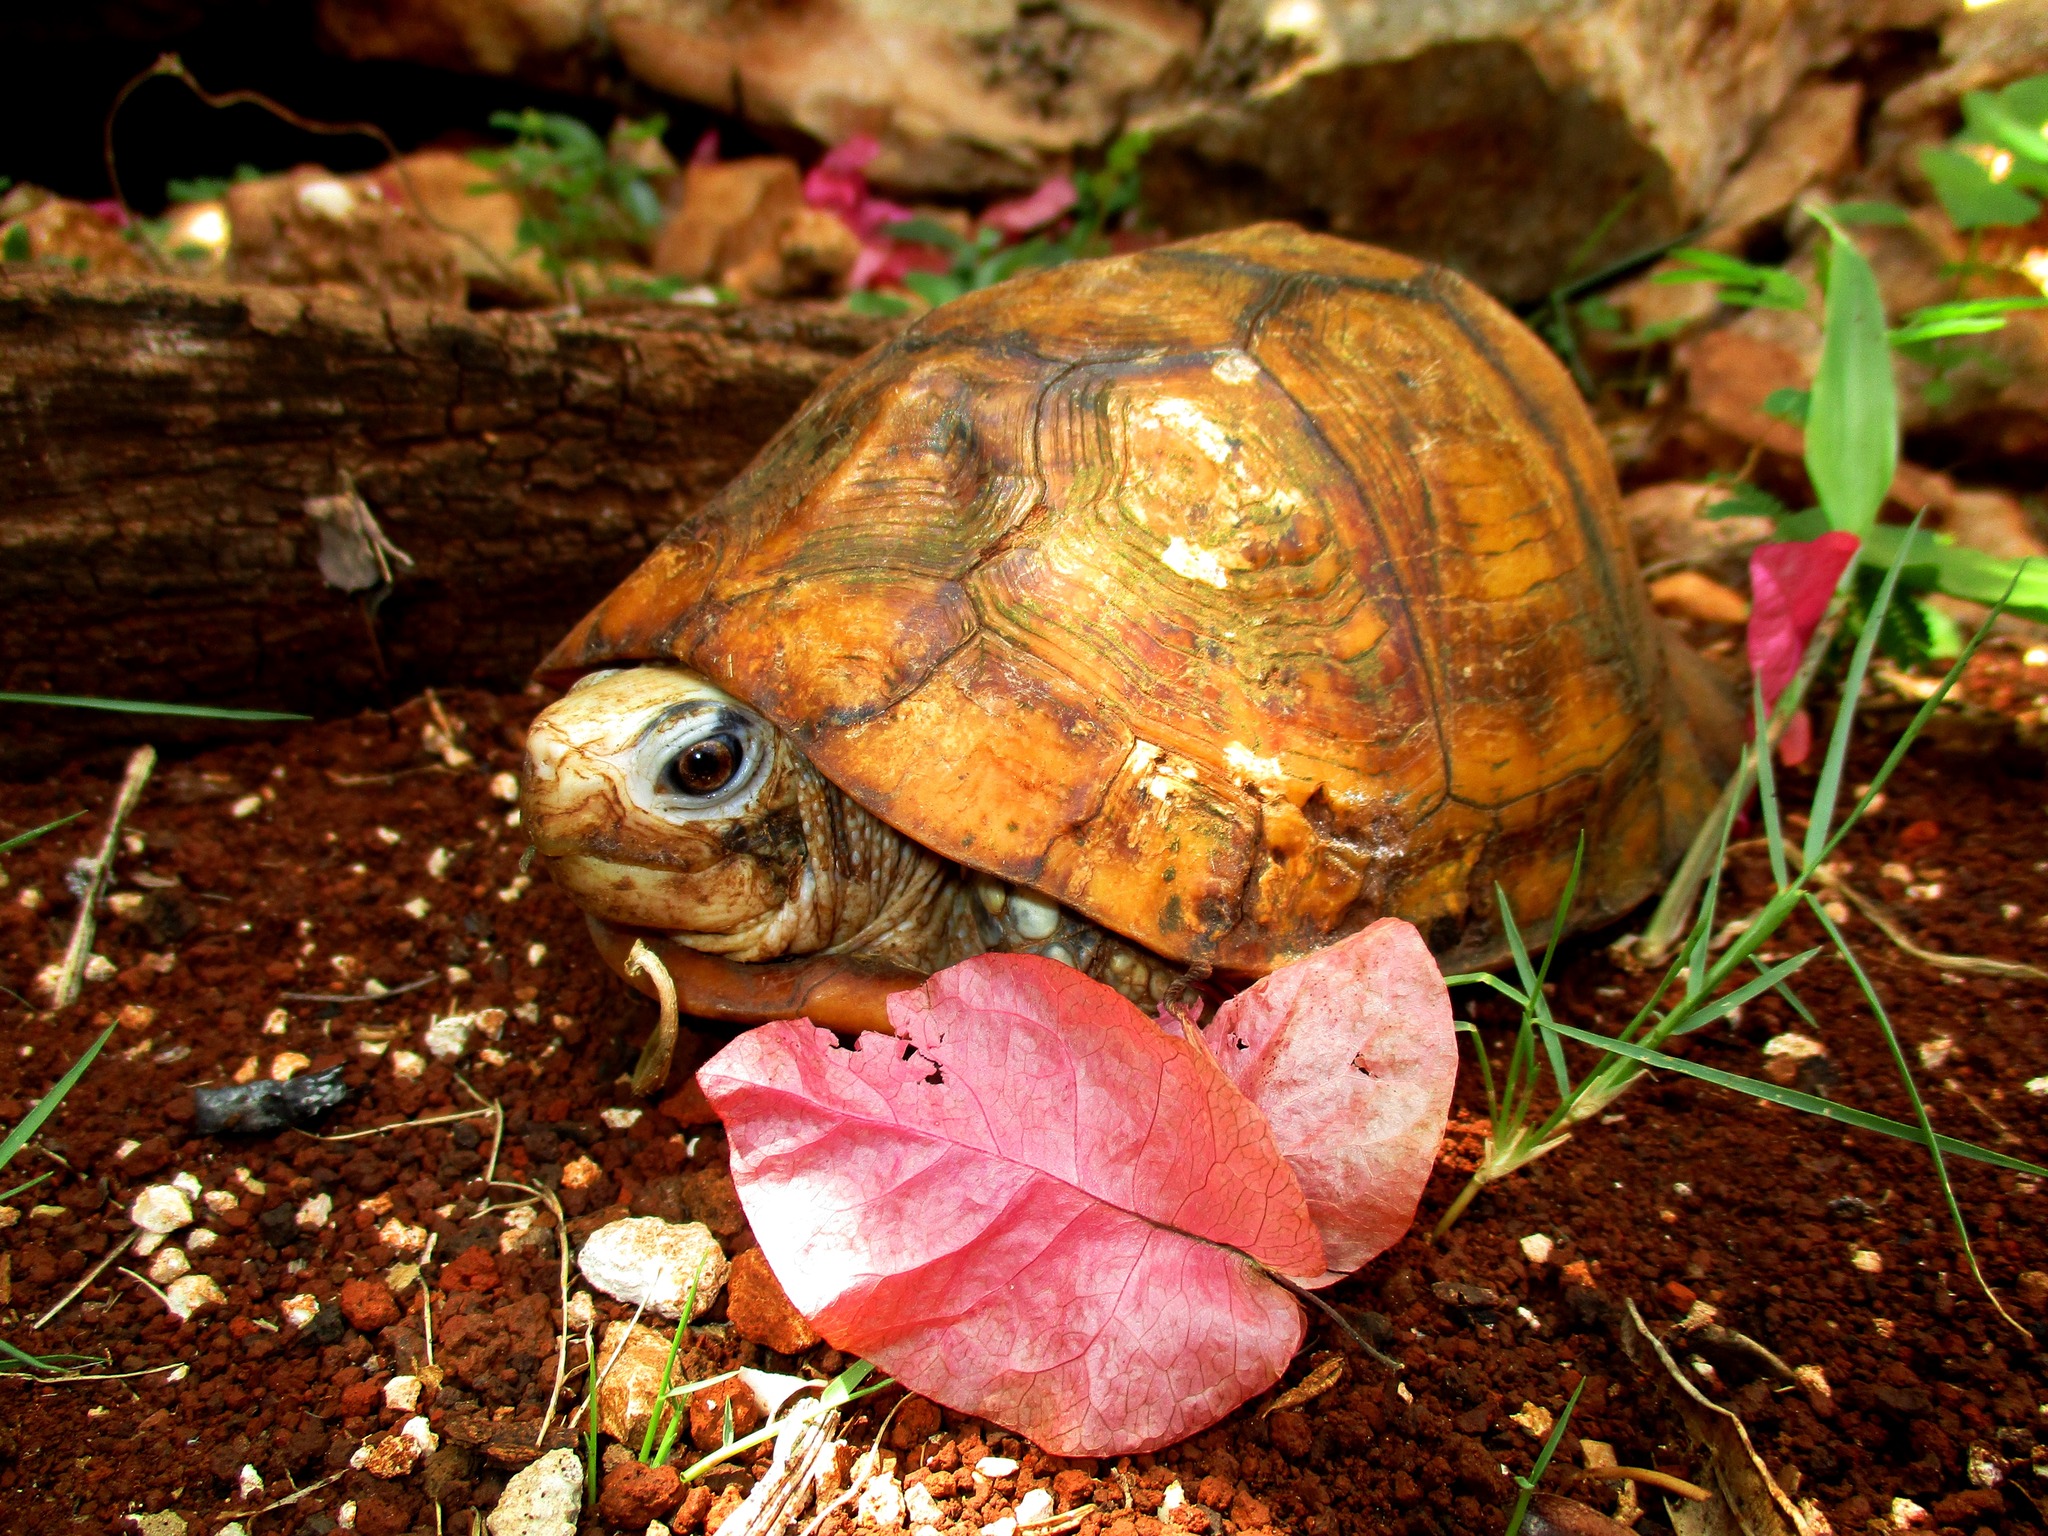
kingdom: Animalia
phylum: Chordata
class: Testudines
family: Emydidae
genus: Terrapene
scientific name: Terrapene yucatana
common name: Yucatan box turtle
